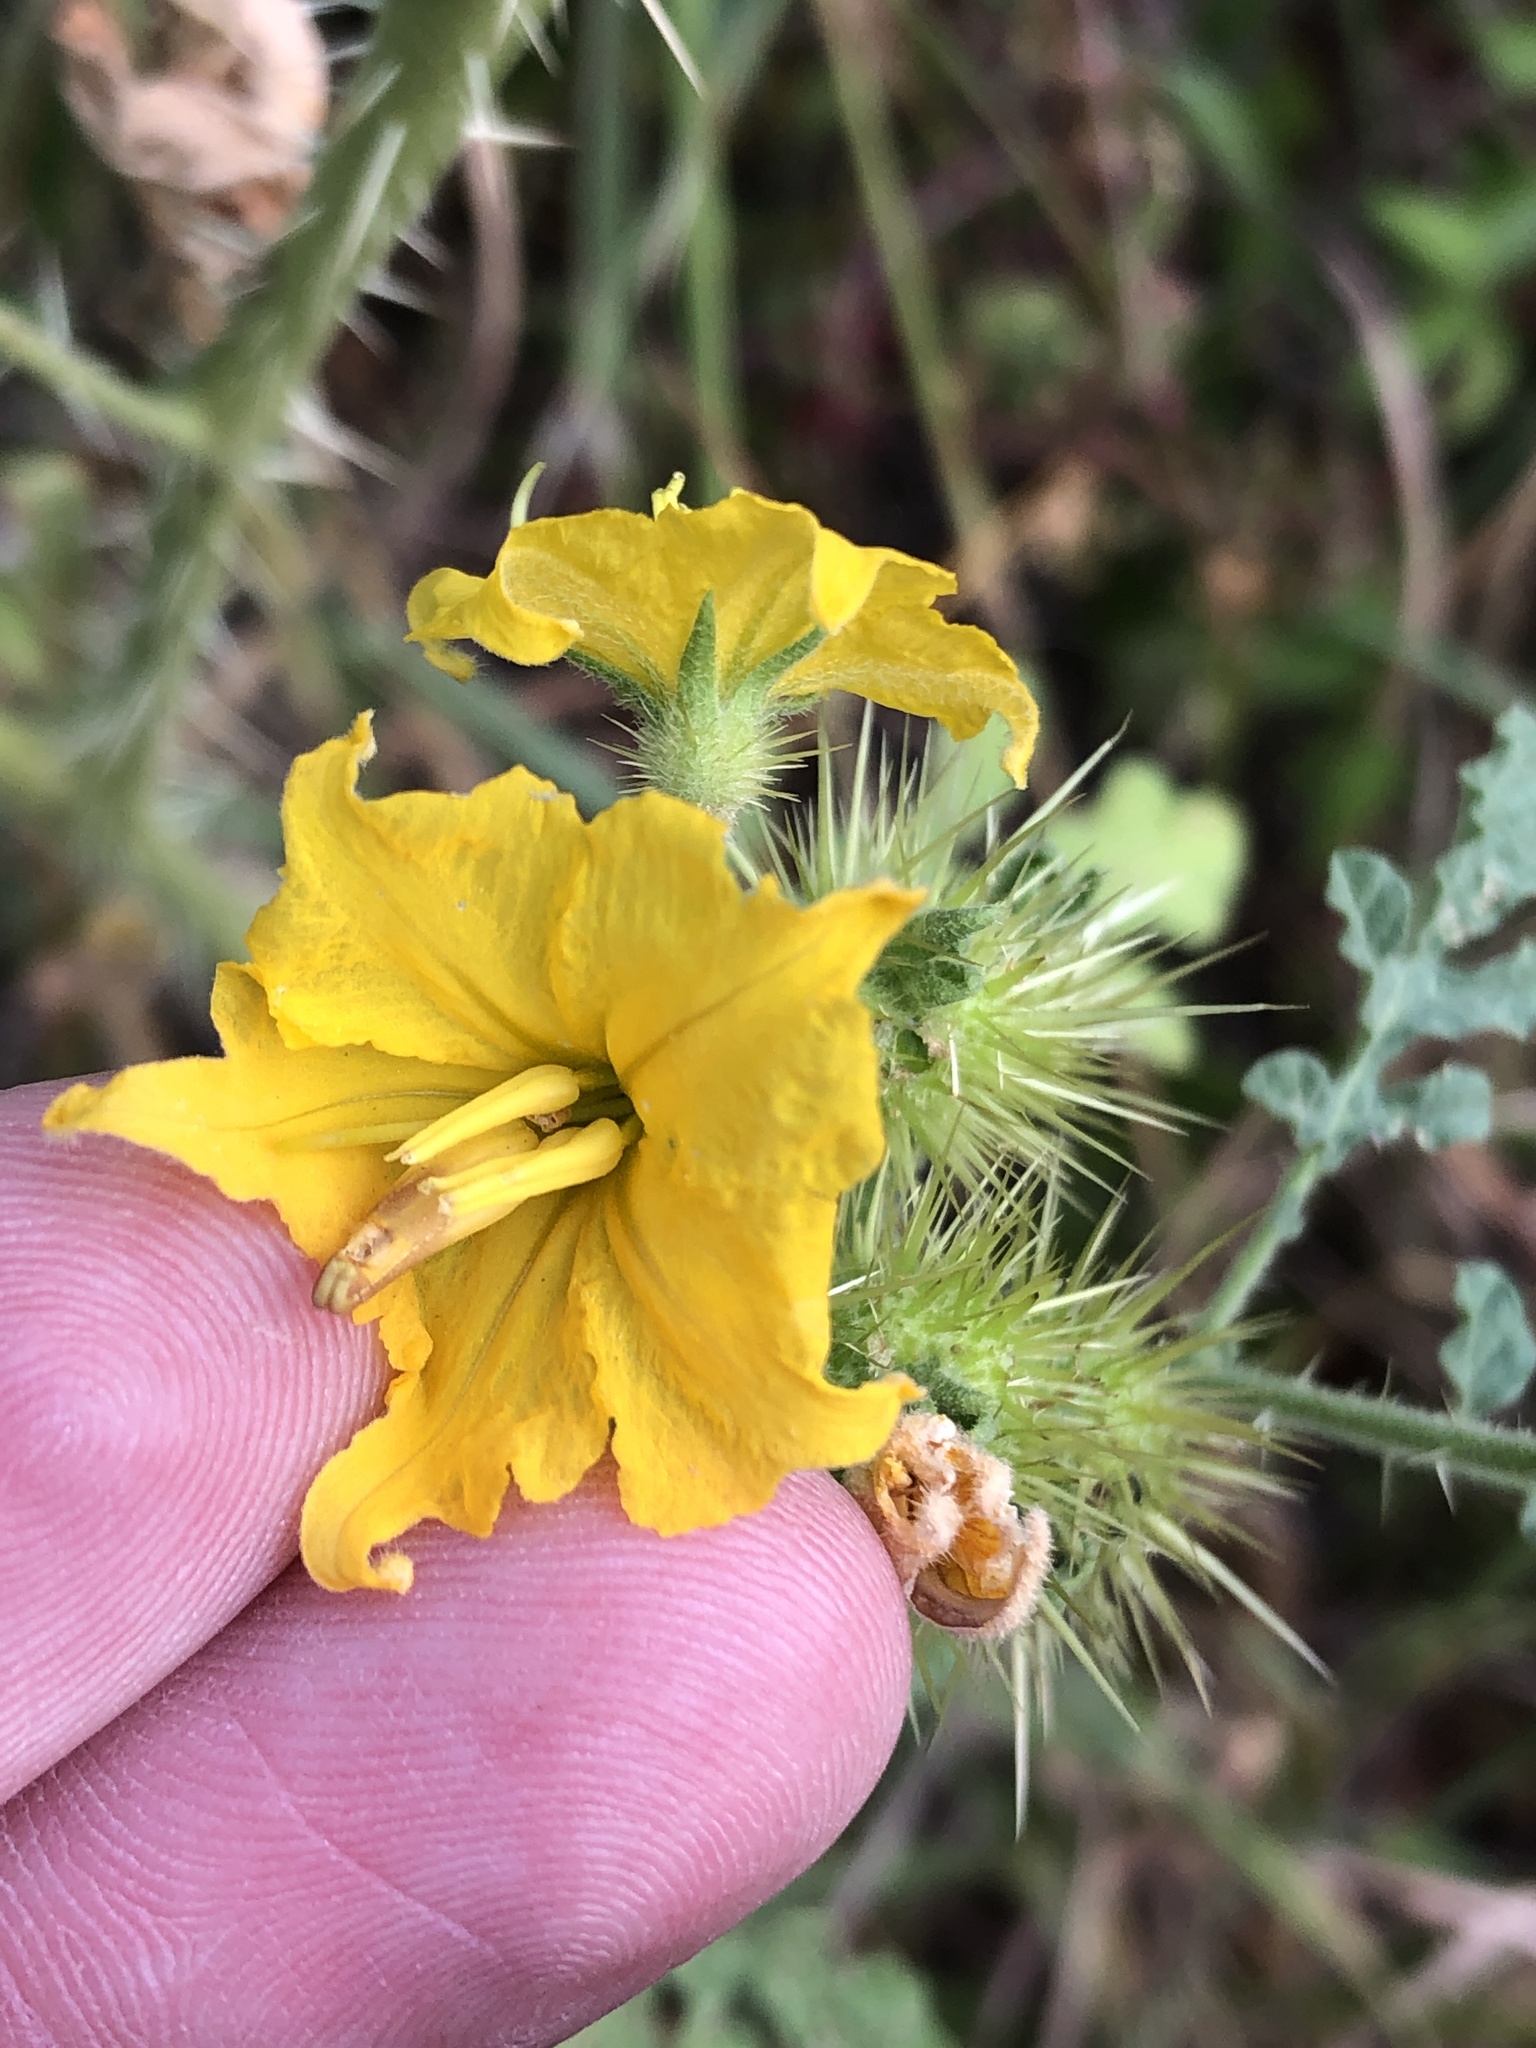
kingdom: Plantae
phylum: Tracheophyta
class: Magnoliopsida
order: Solanales
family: Solanaceae
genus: Solanum
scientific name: Solanum angustifolium
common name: Buffalobur nightshade
